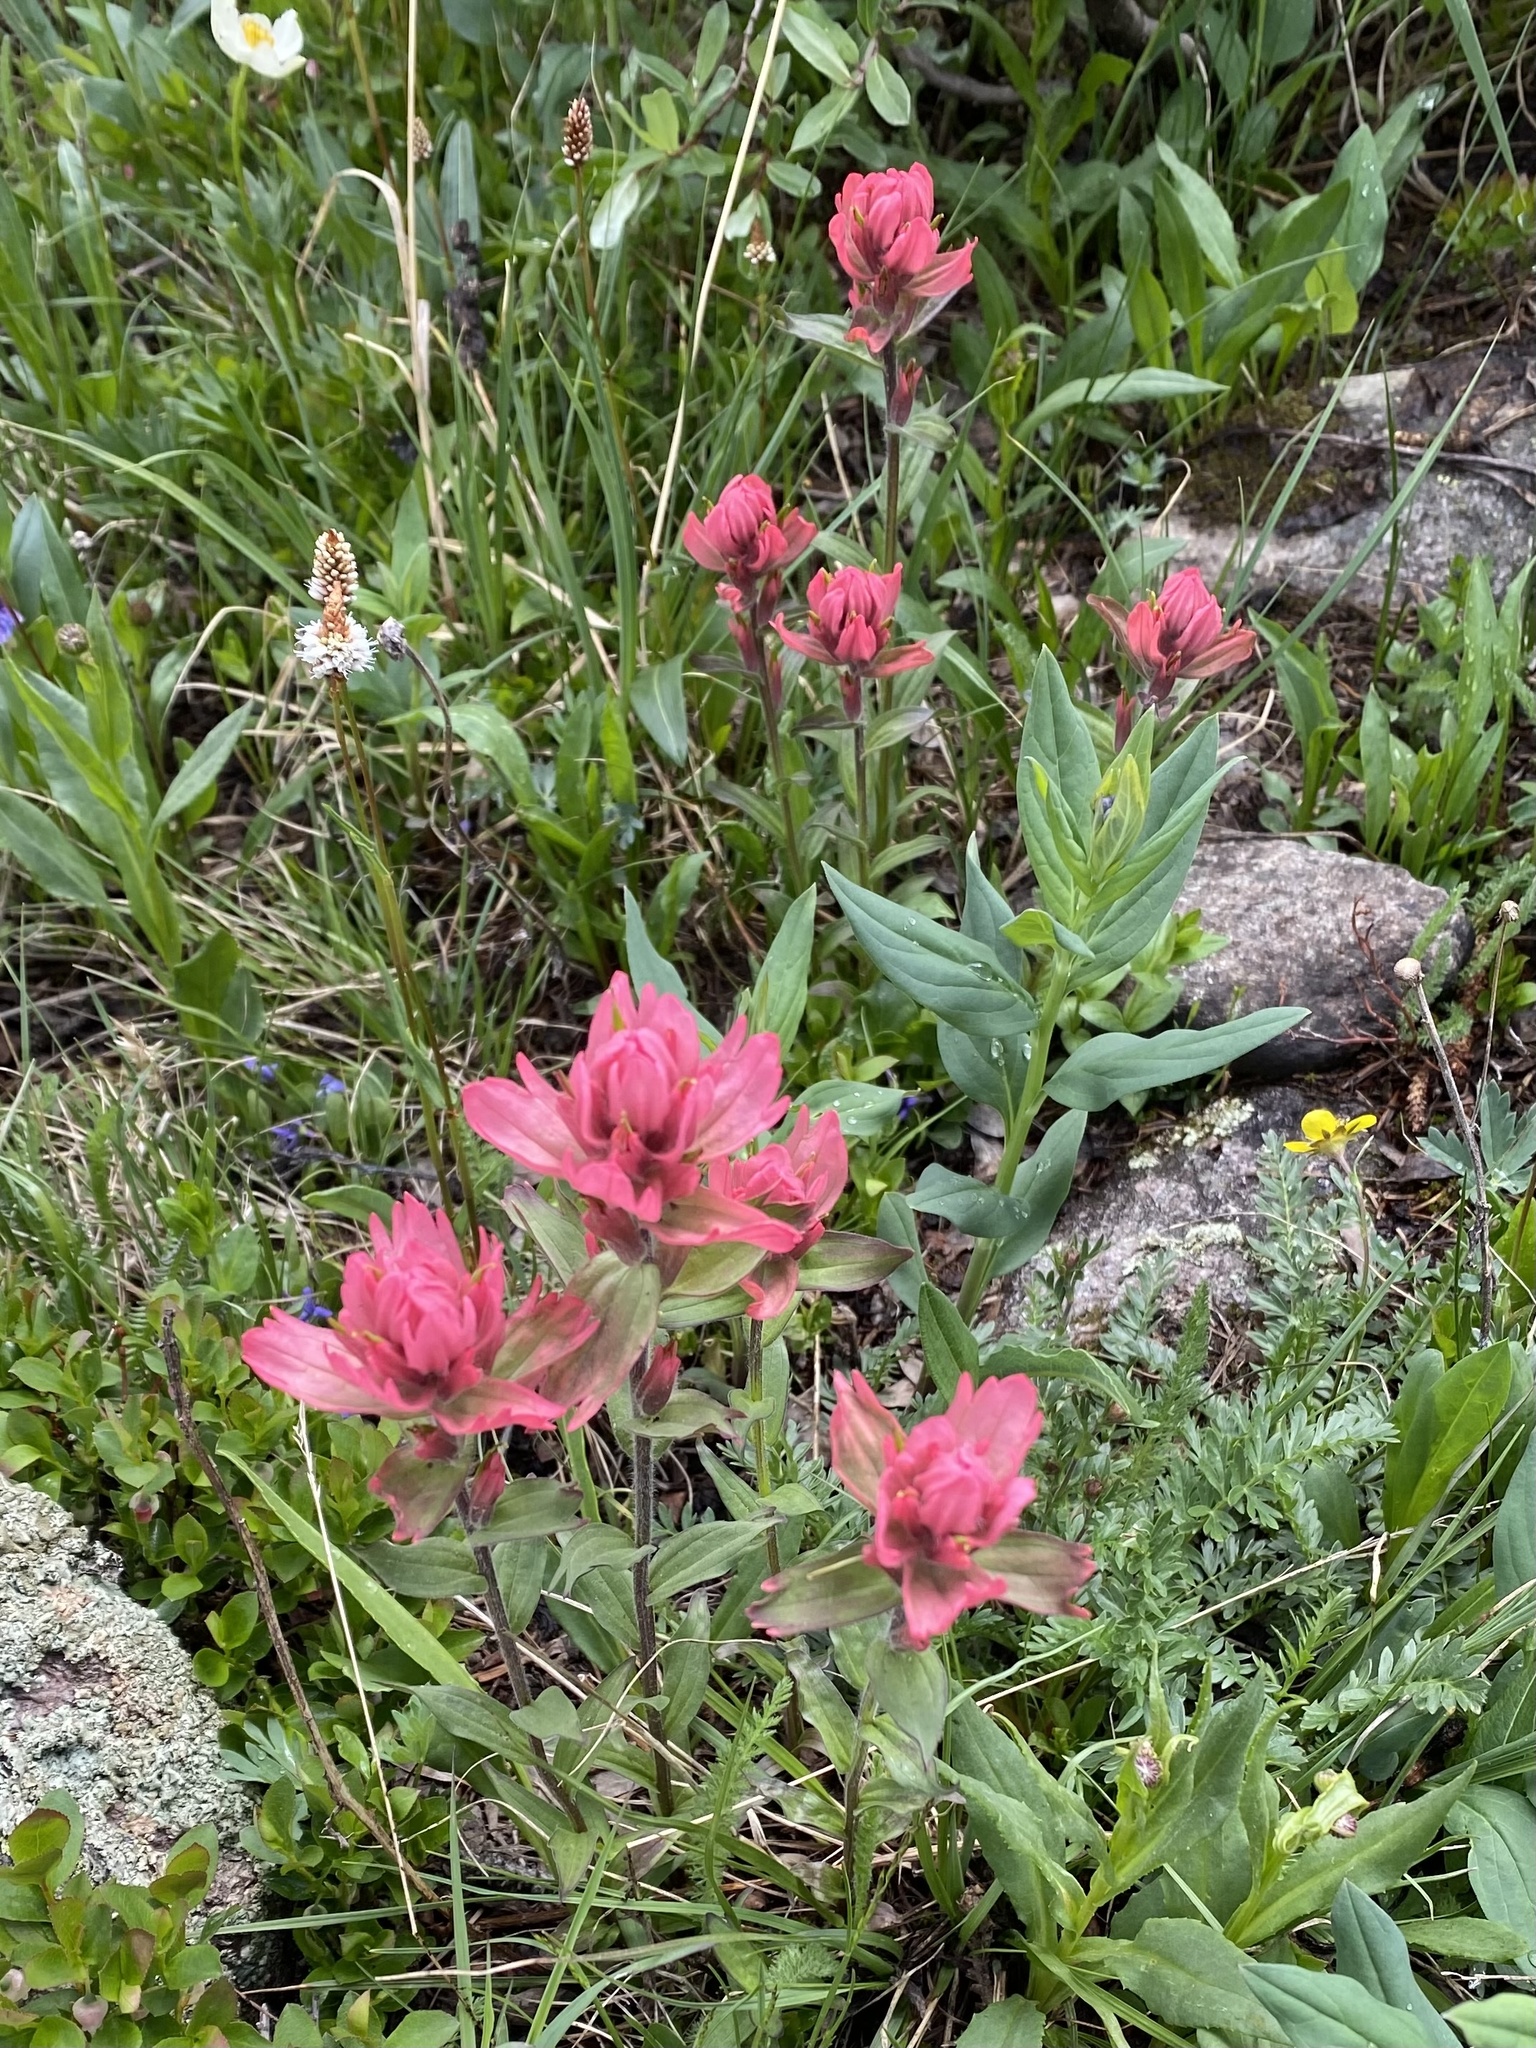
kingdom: Plantae
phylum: Tracheophyta
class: Magnoliopsida
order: Lamiales
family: Orobanchaceae
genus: Castilleja
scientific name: Castilleja rhexifolia
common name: Rocky mountain paintbrush
